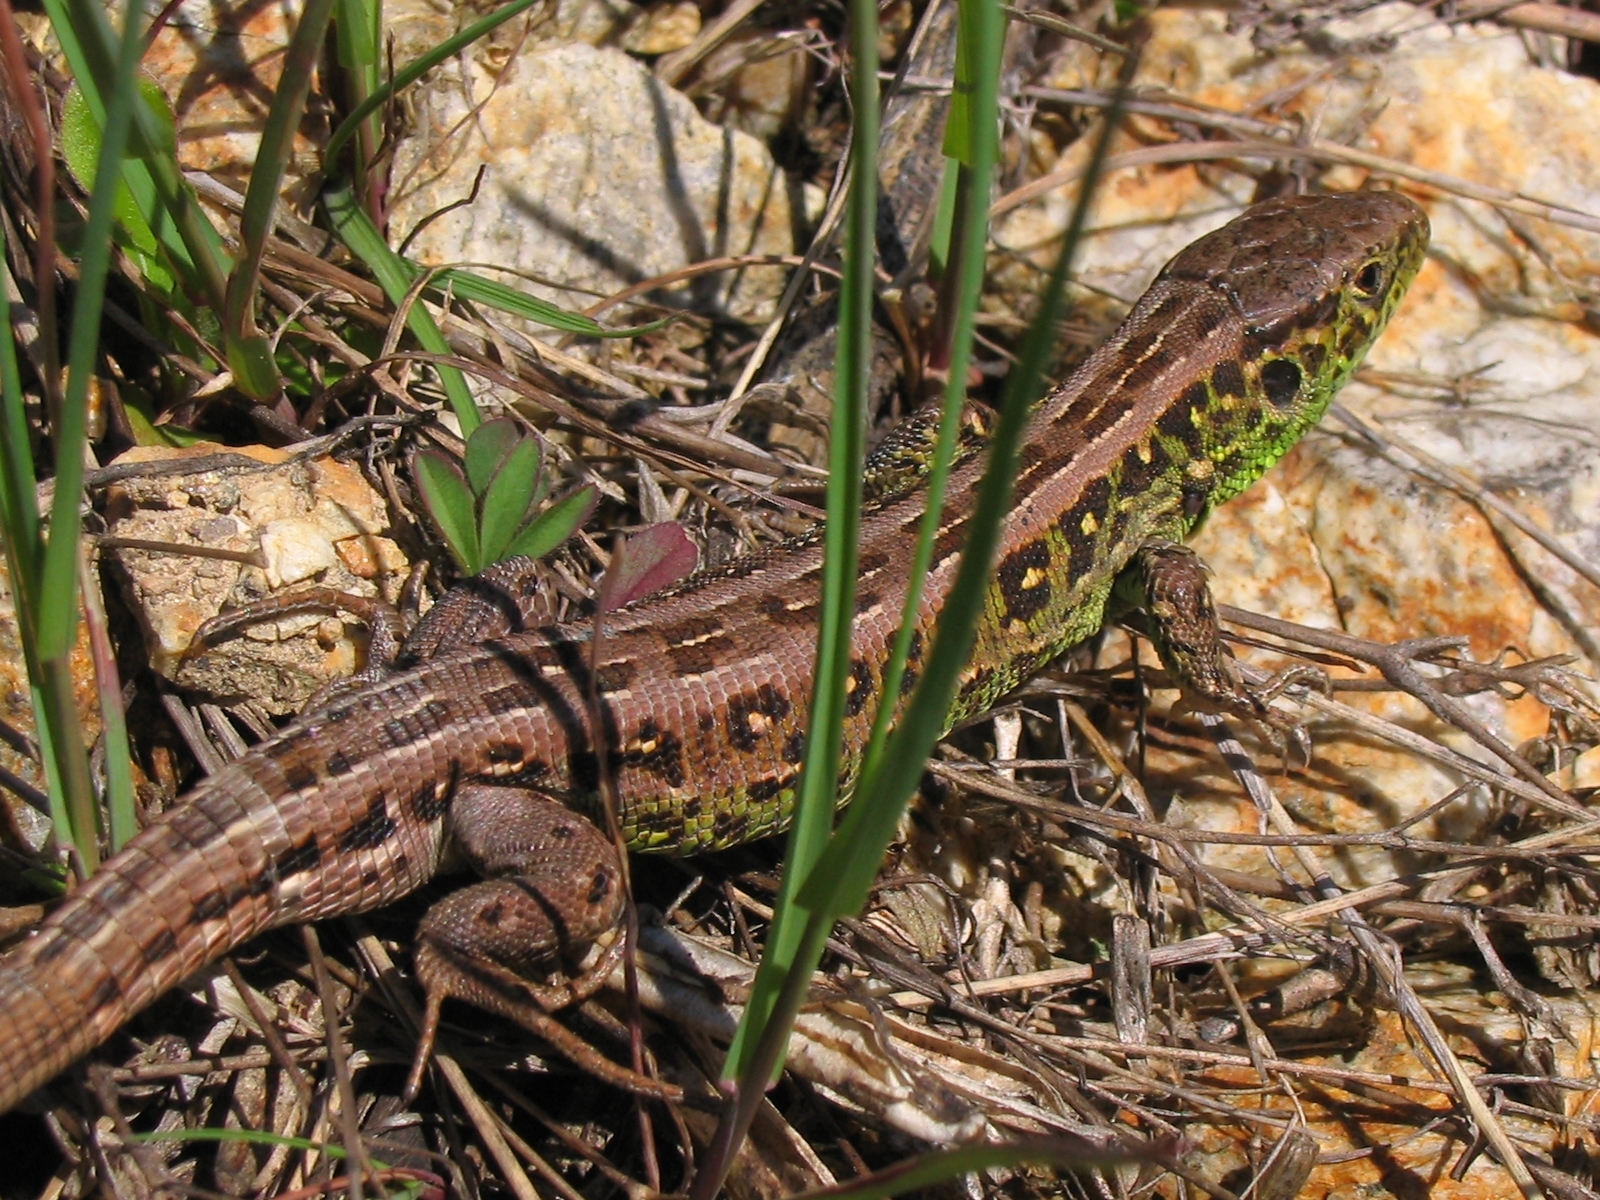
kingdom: Animalia
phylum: Chordata
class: Squamata
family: Lacertidae
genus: Lacerta
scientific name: Lacerta agilis
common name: Sand lizard
